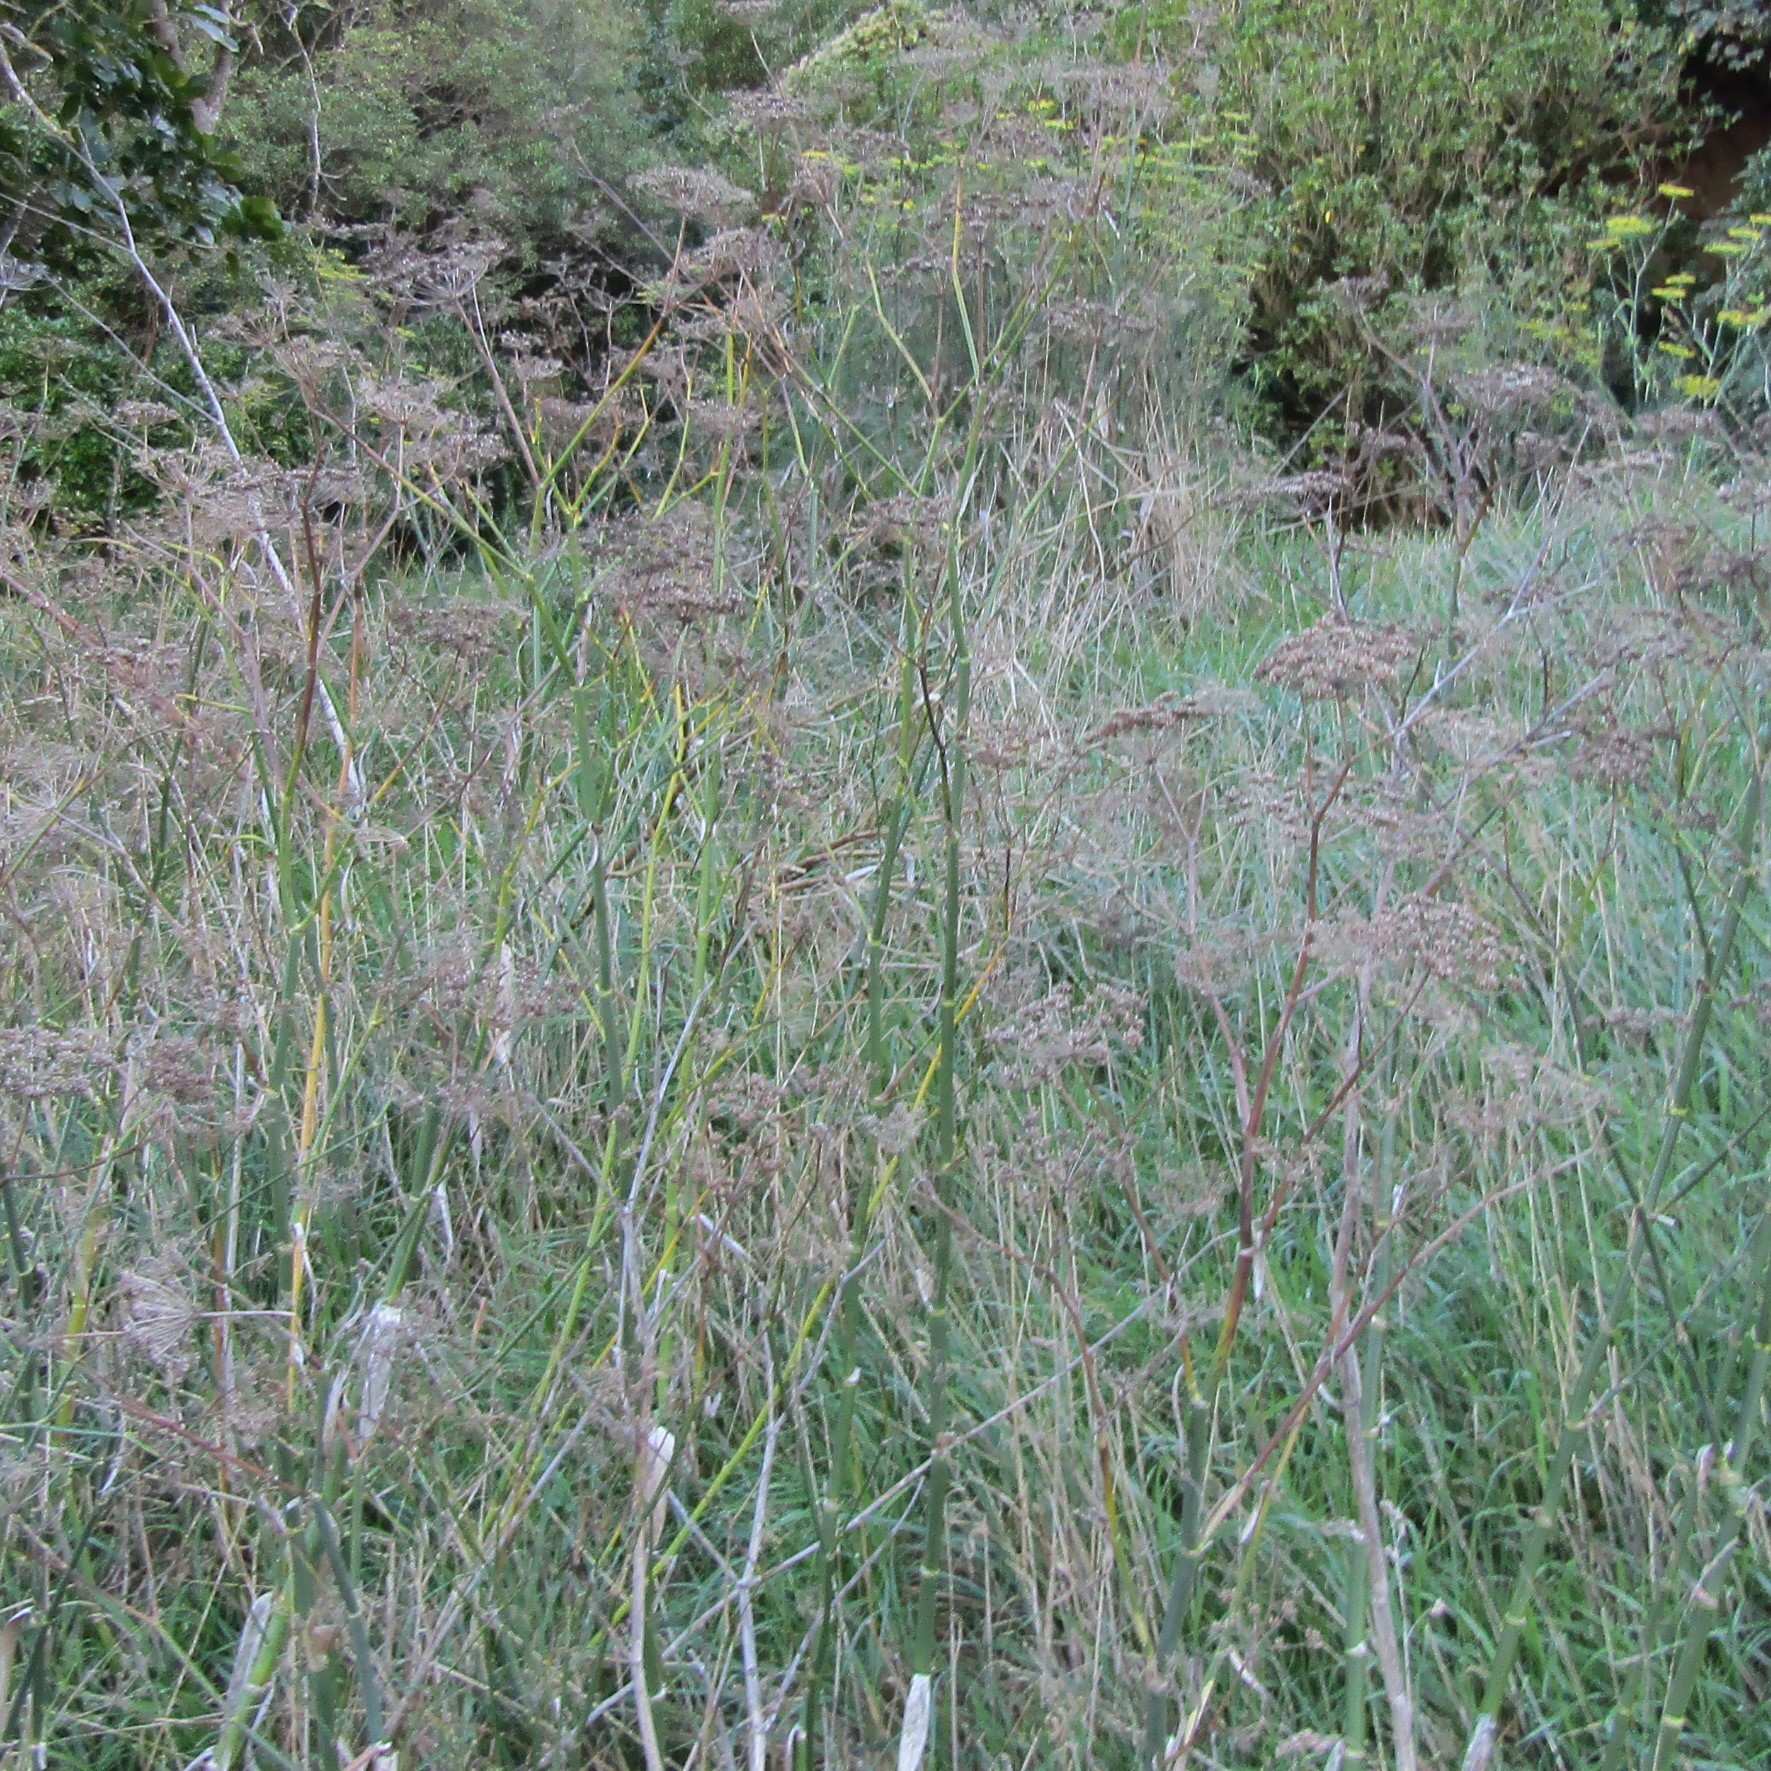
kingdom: Plantae
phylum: Tracheophyta
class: Magnoliopsida
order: Apiales
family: Apiaceae
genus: Foeniculum
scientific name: Foeniculum vulgare
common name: Fennel
